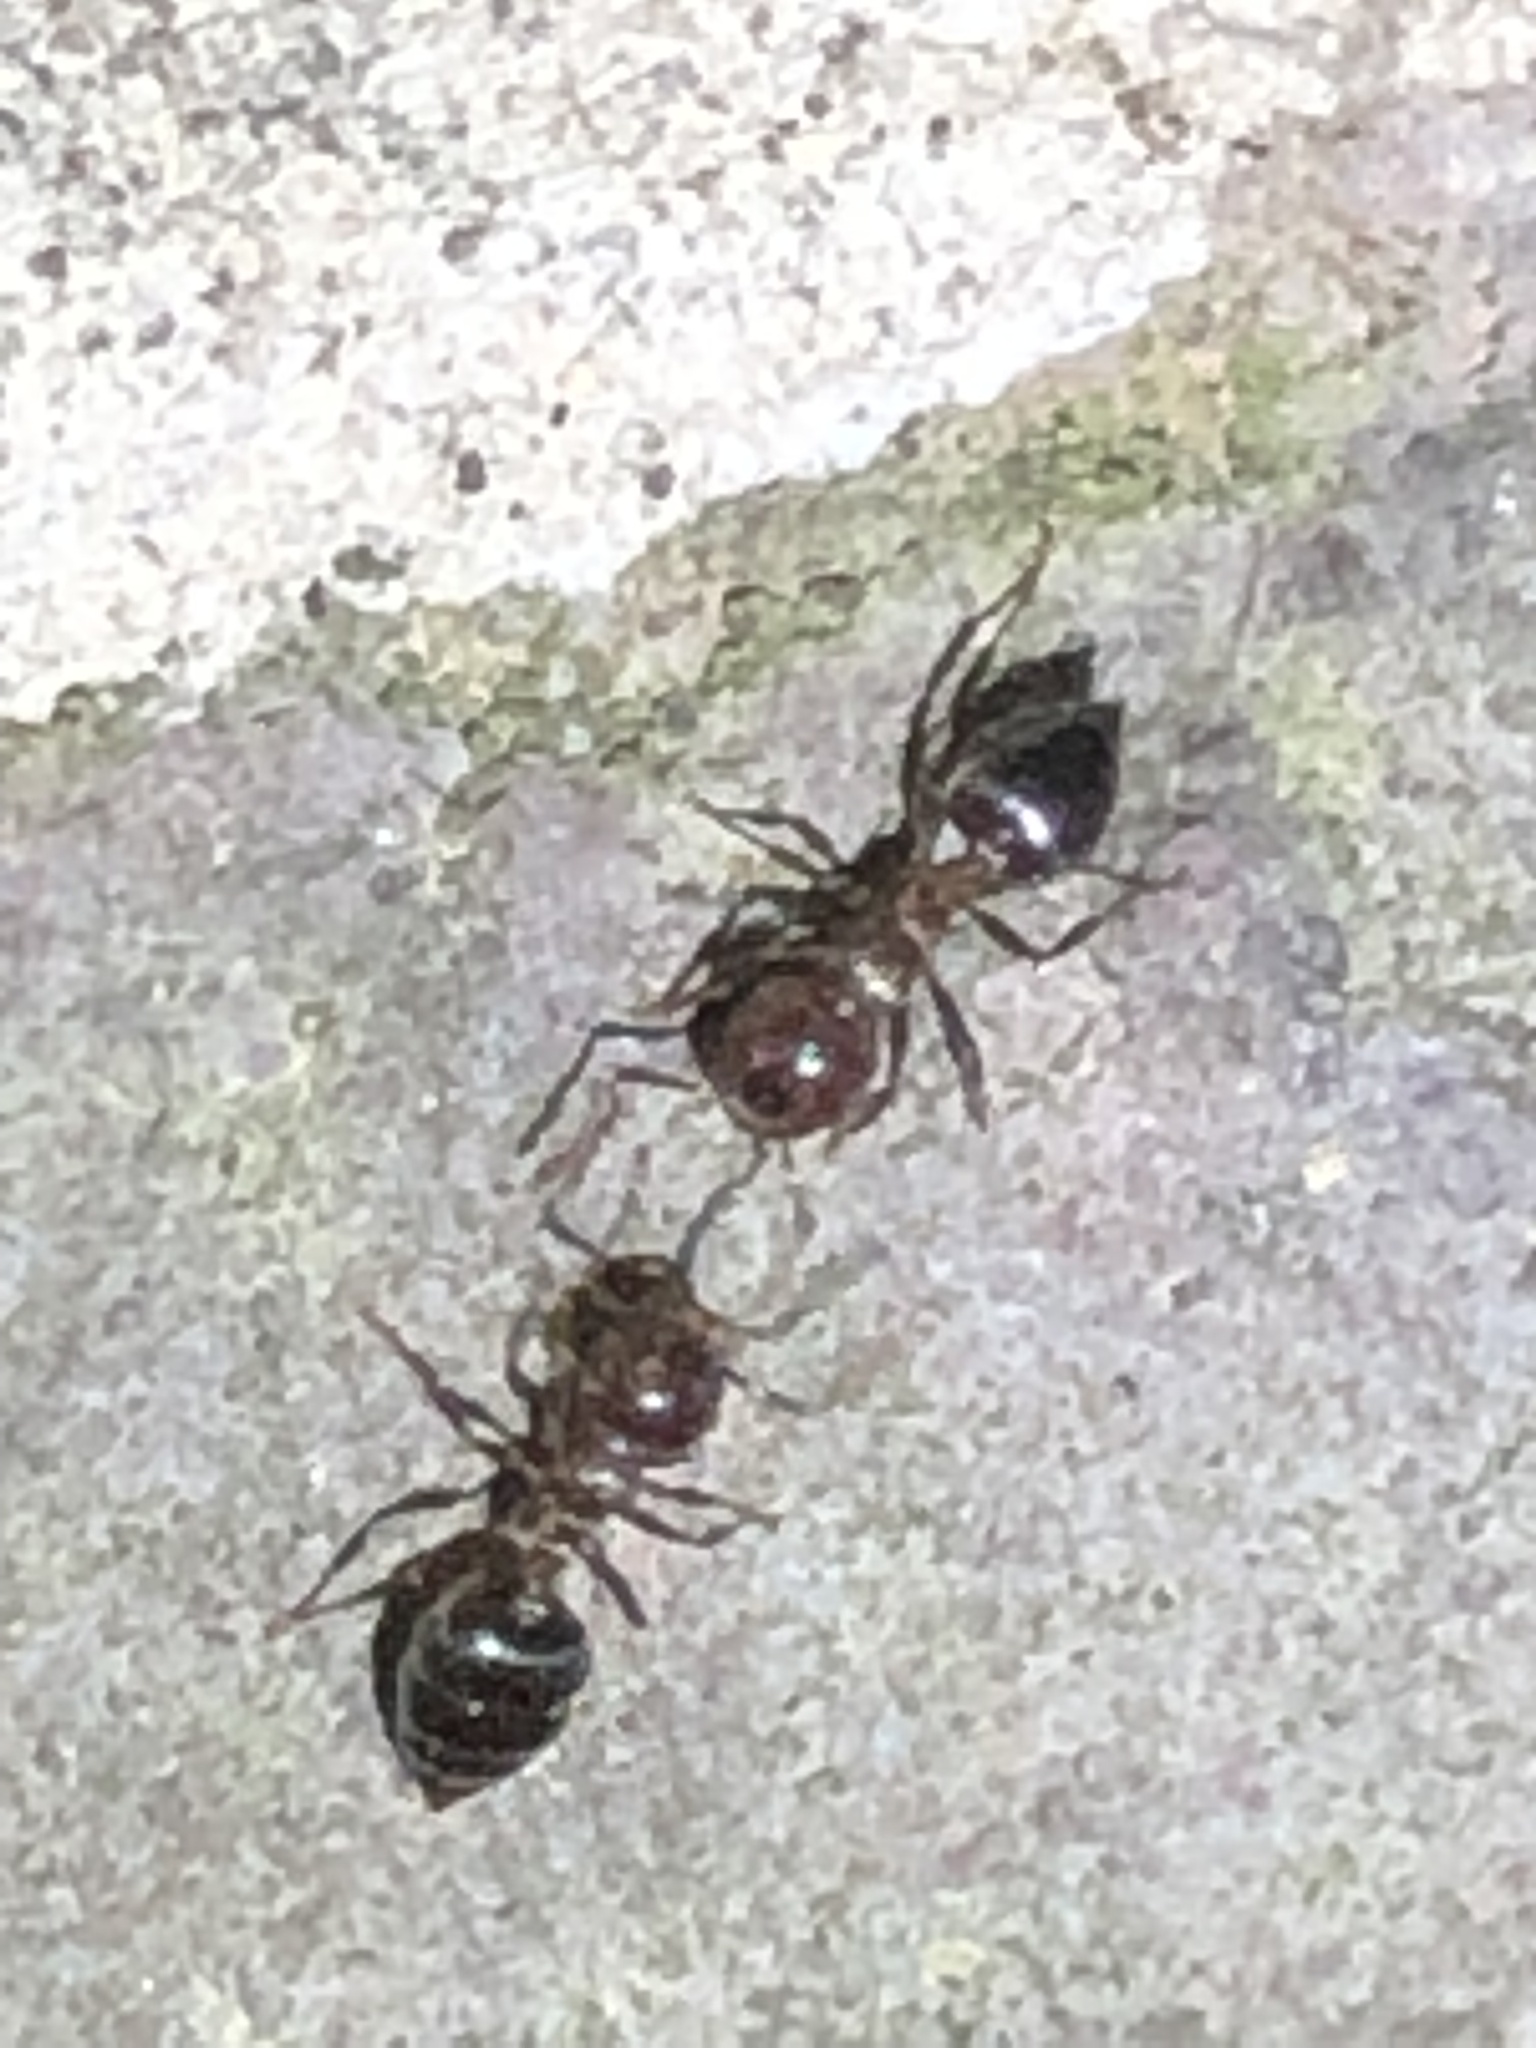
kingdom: Animalia
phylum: Arthropoda
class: Insecta
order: Hymenoptera
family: Formicidae
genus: Crematogaster
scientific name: Crematogaster cerasi
